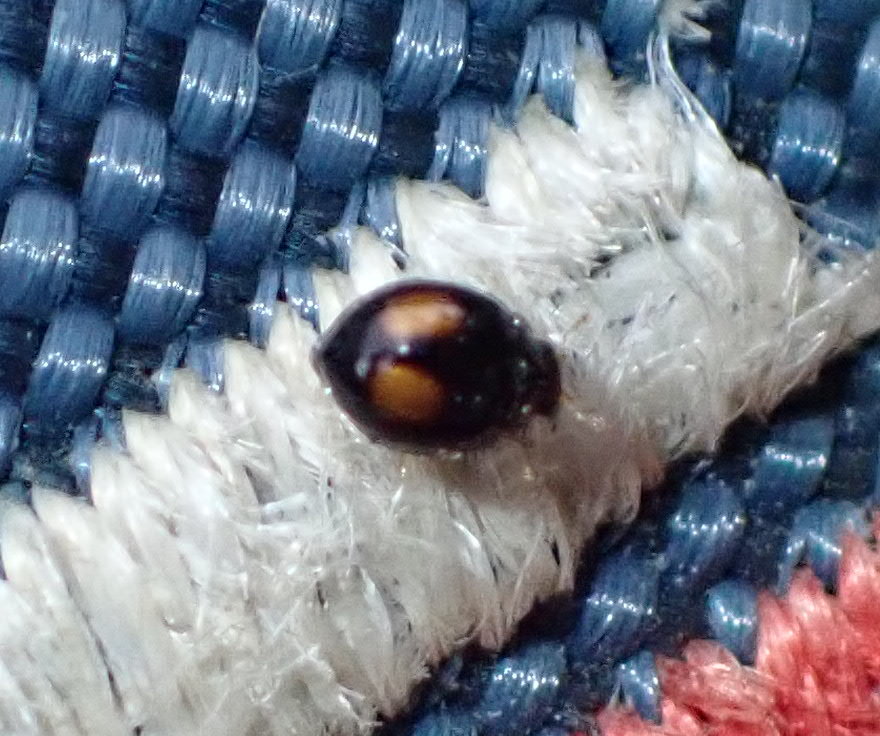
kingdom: Animalia
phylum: Arthropoda
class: Insecta
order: Coleoptera
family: Coccinellidae
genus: Serangium
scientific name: Serangium maculigerum
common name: Lady beetle
